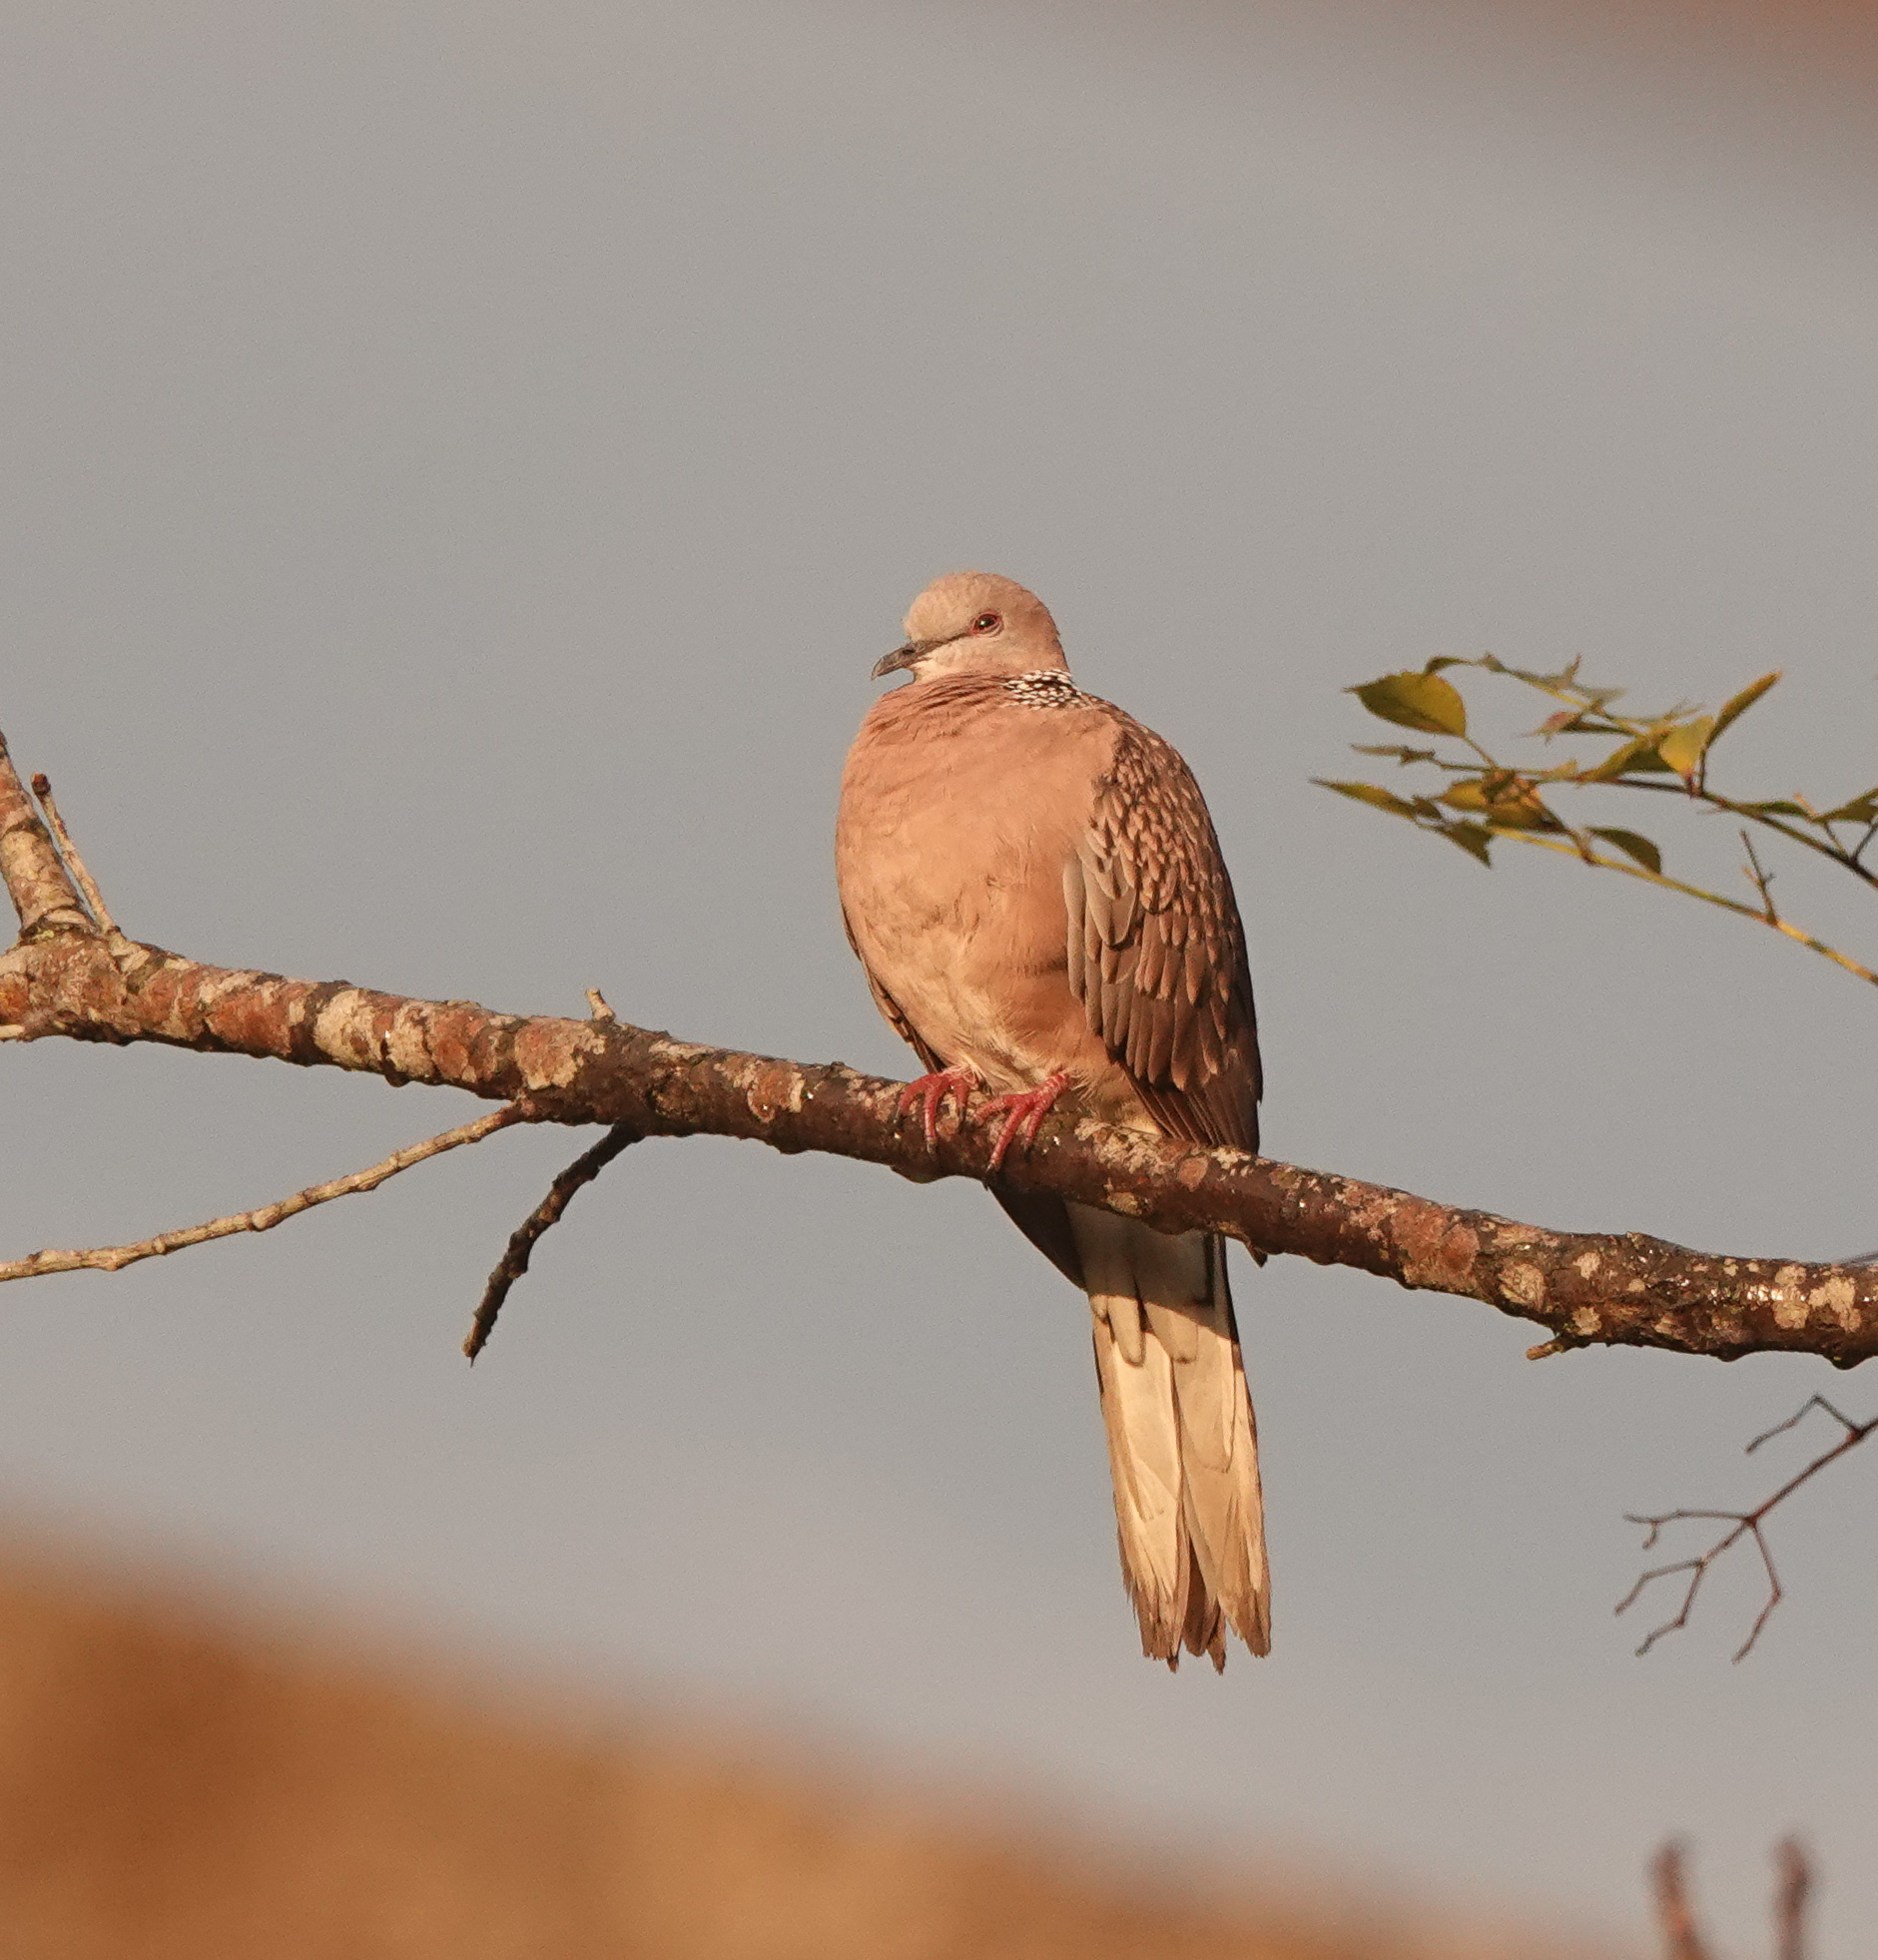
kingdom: Animalia
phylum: Chordata
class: Aves
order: Columbiformes
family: Columbidae
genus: Spilopelia
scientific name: Spilopelia chinensis
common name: Spotted dove
